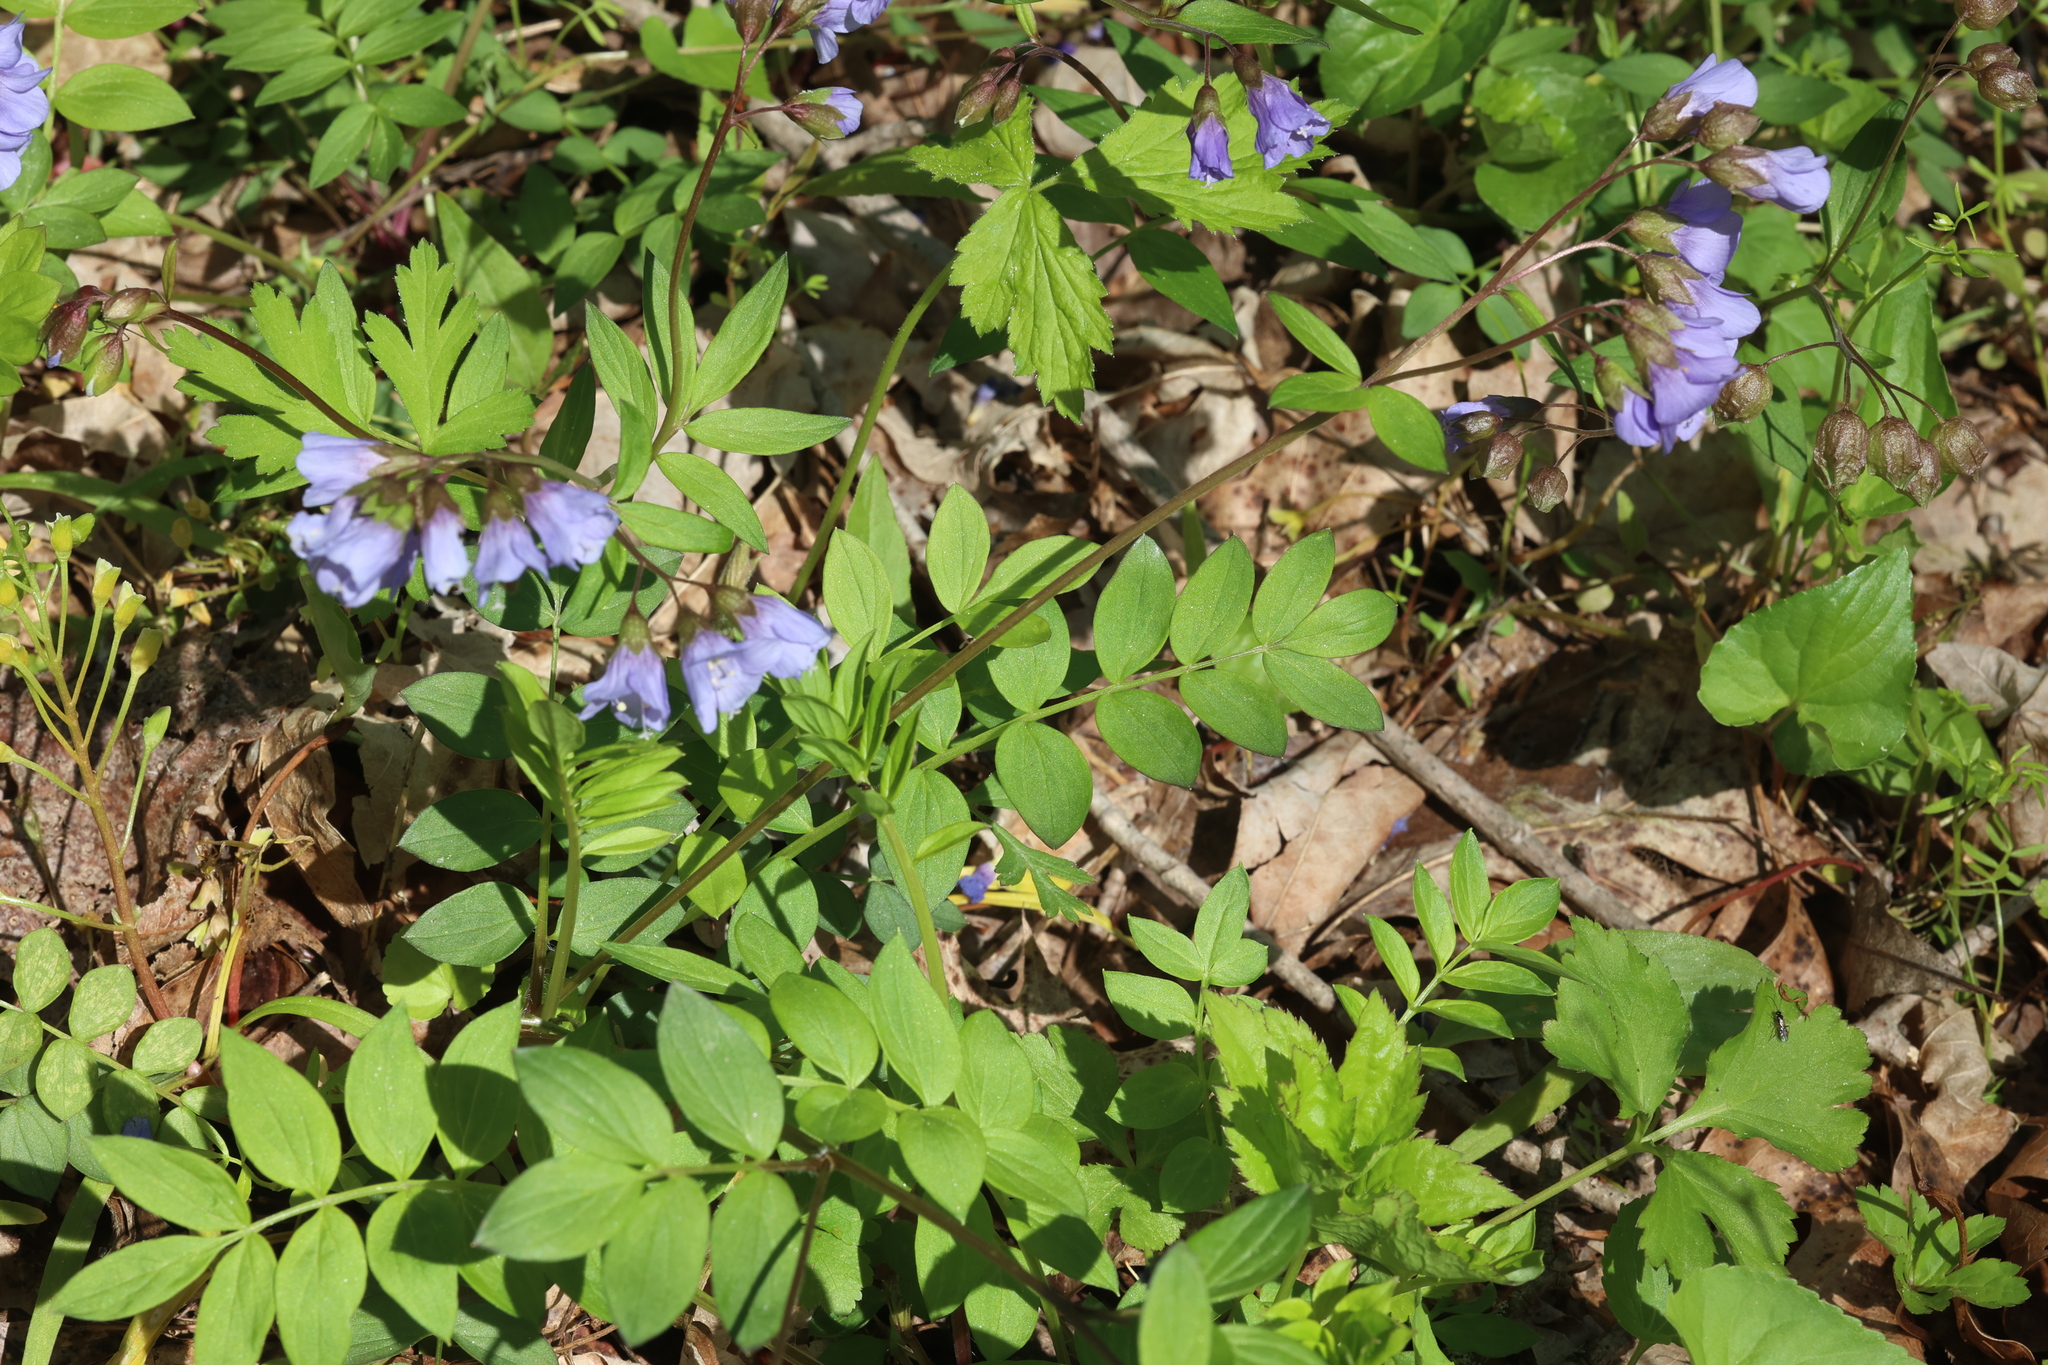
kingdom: Plantae
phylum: Tracheophyta
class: Magnoliopsida
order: Ericales
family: Polemoniaceae
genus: Polemonium
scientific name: Polemonium reptans
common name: Creeping jacob's-ladder
